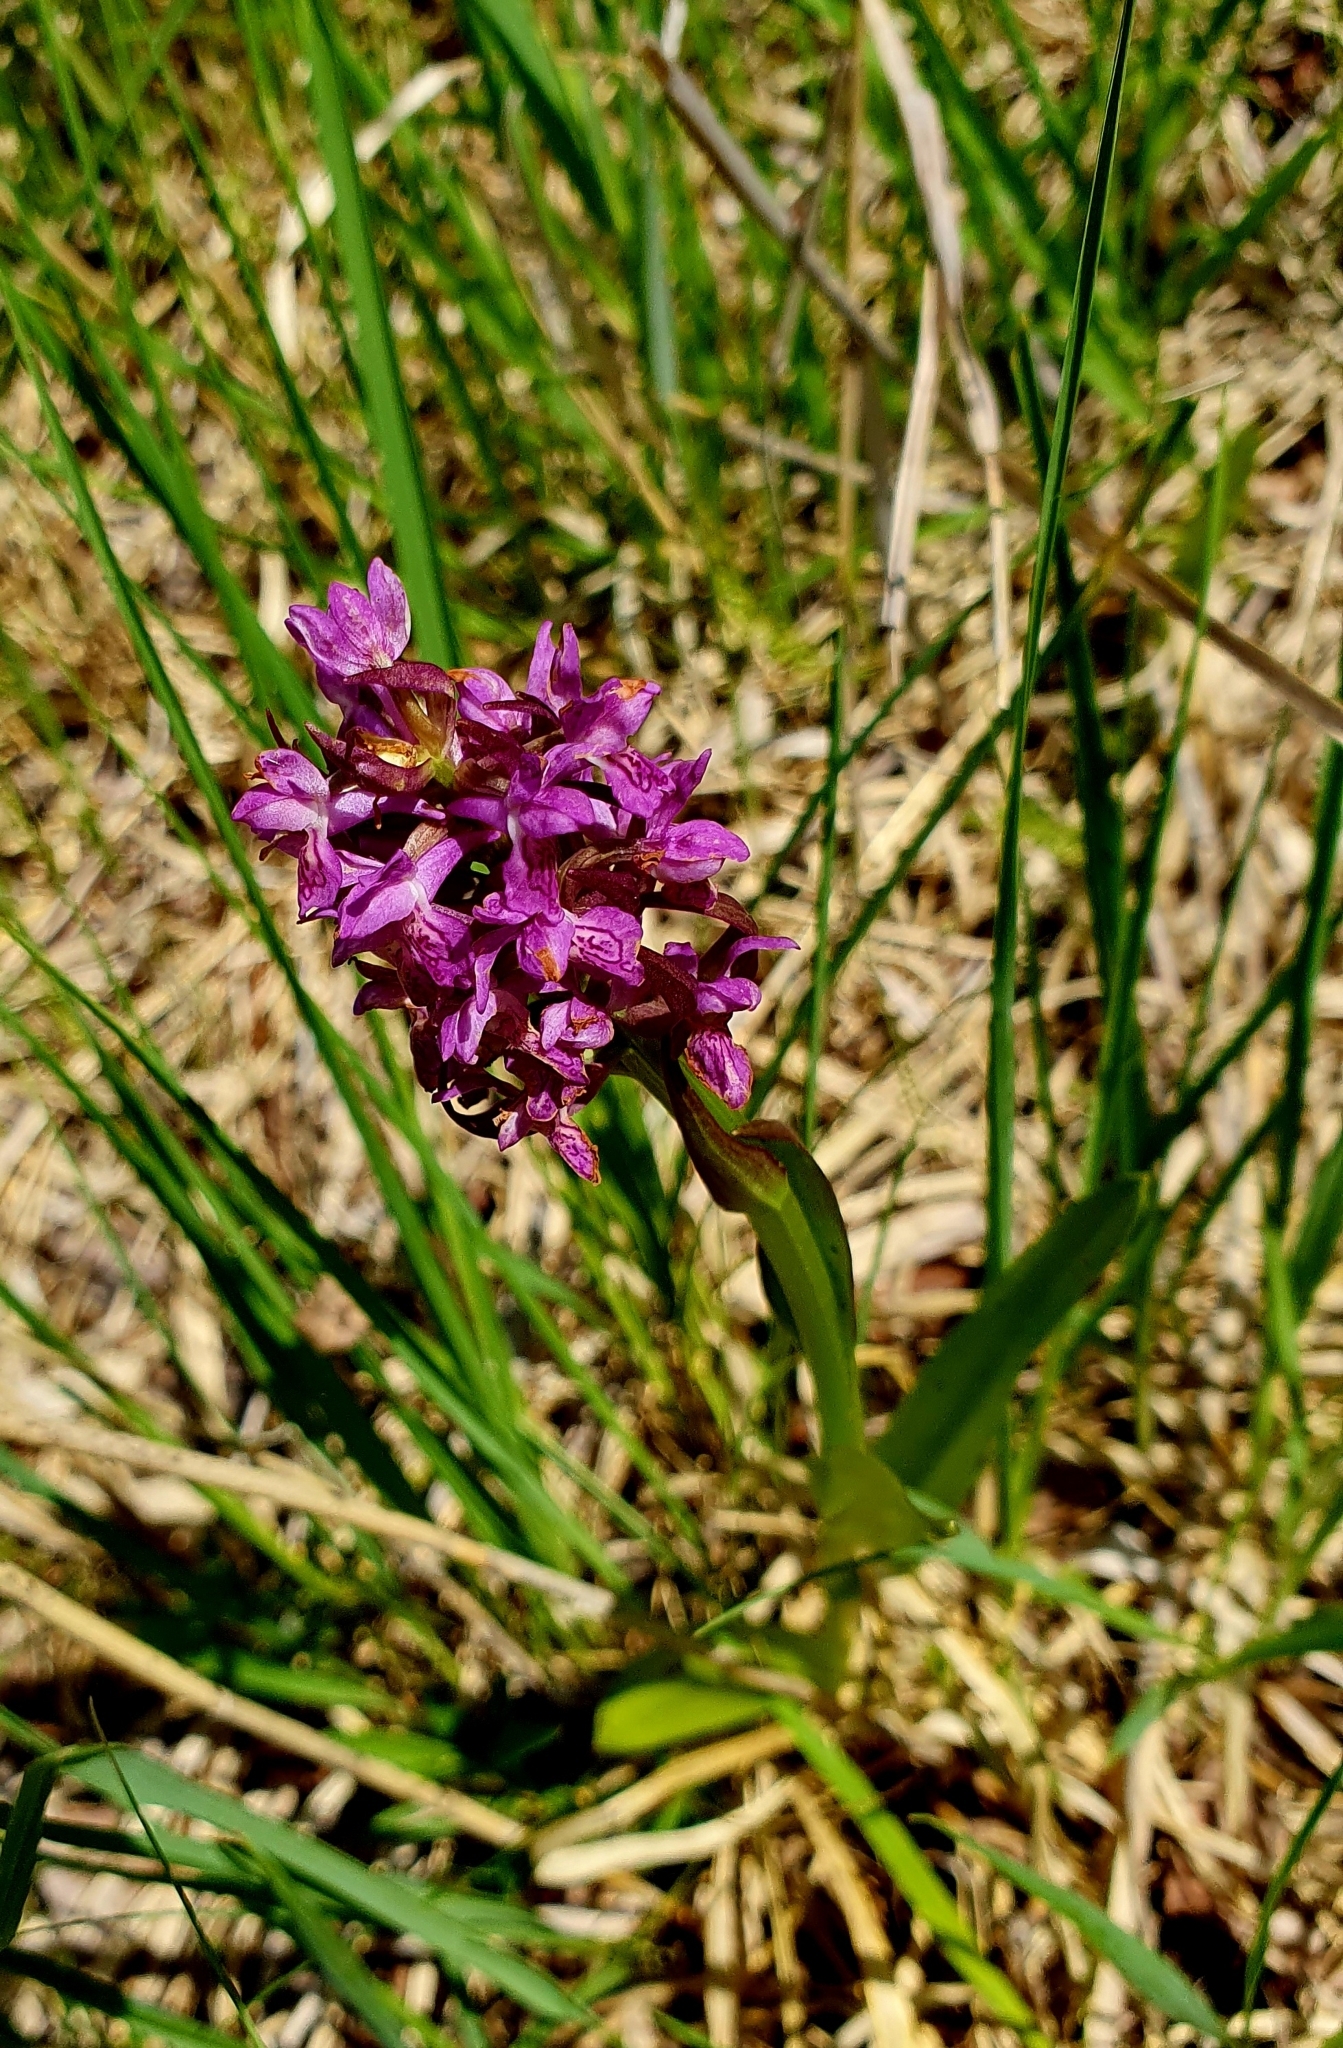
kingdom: Plantae
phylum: Tracheophyta
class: Liliopsida
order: Asparagales
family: Orchidaceae
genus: Dactylorhiza
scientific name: Dactylorhiza incarnata
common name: Early marsh-orchid
